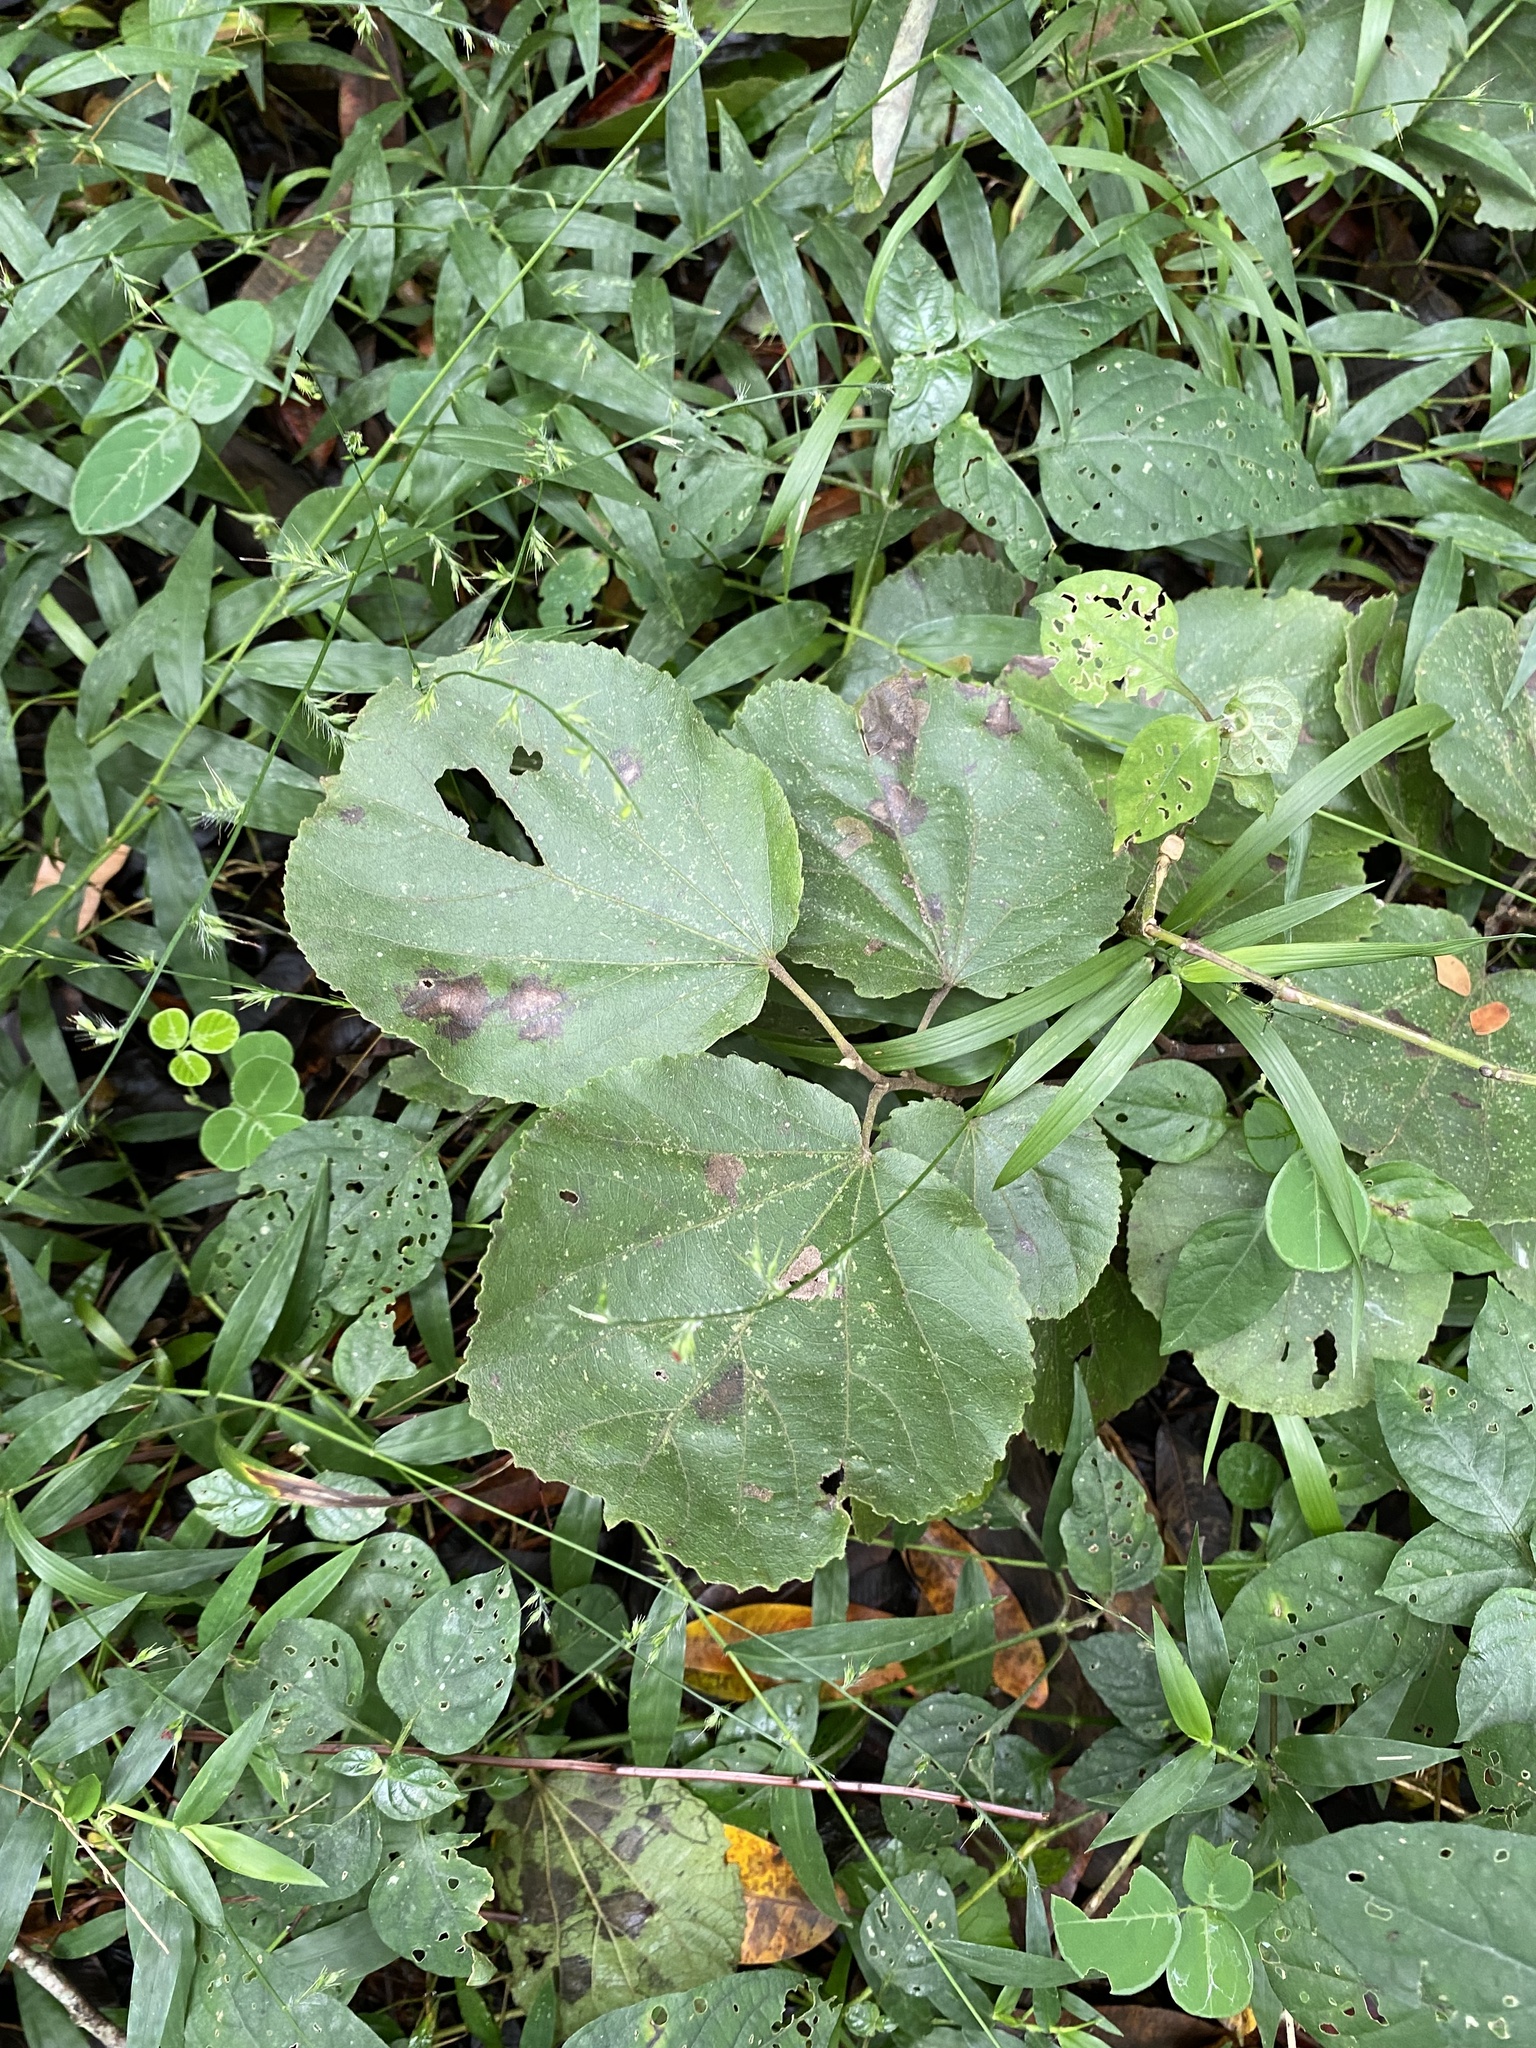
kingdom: Plantae
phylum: Tracheophyta
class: Magnoliopsida
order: Malpighiales
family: Salicaceae
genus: Trimeria
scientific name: Trimeria grandifolia
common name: Wild mulberry
